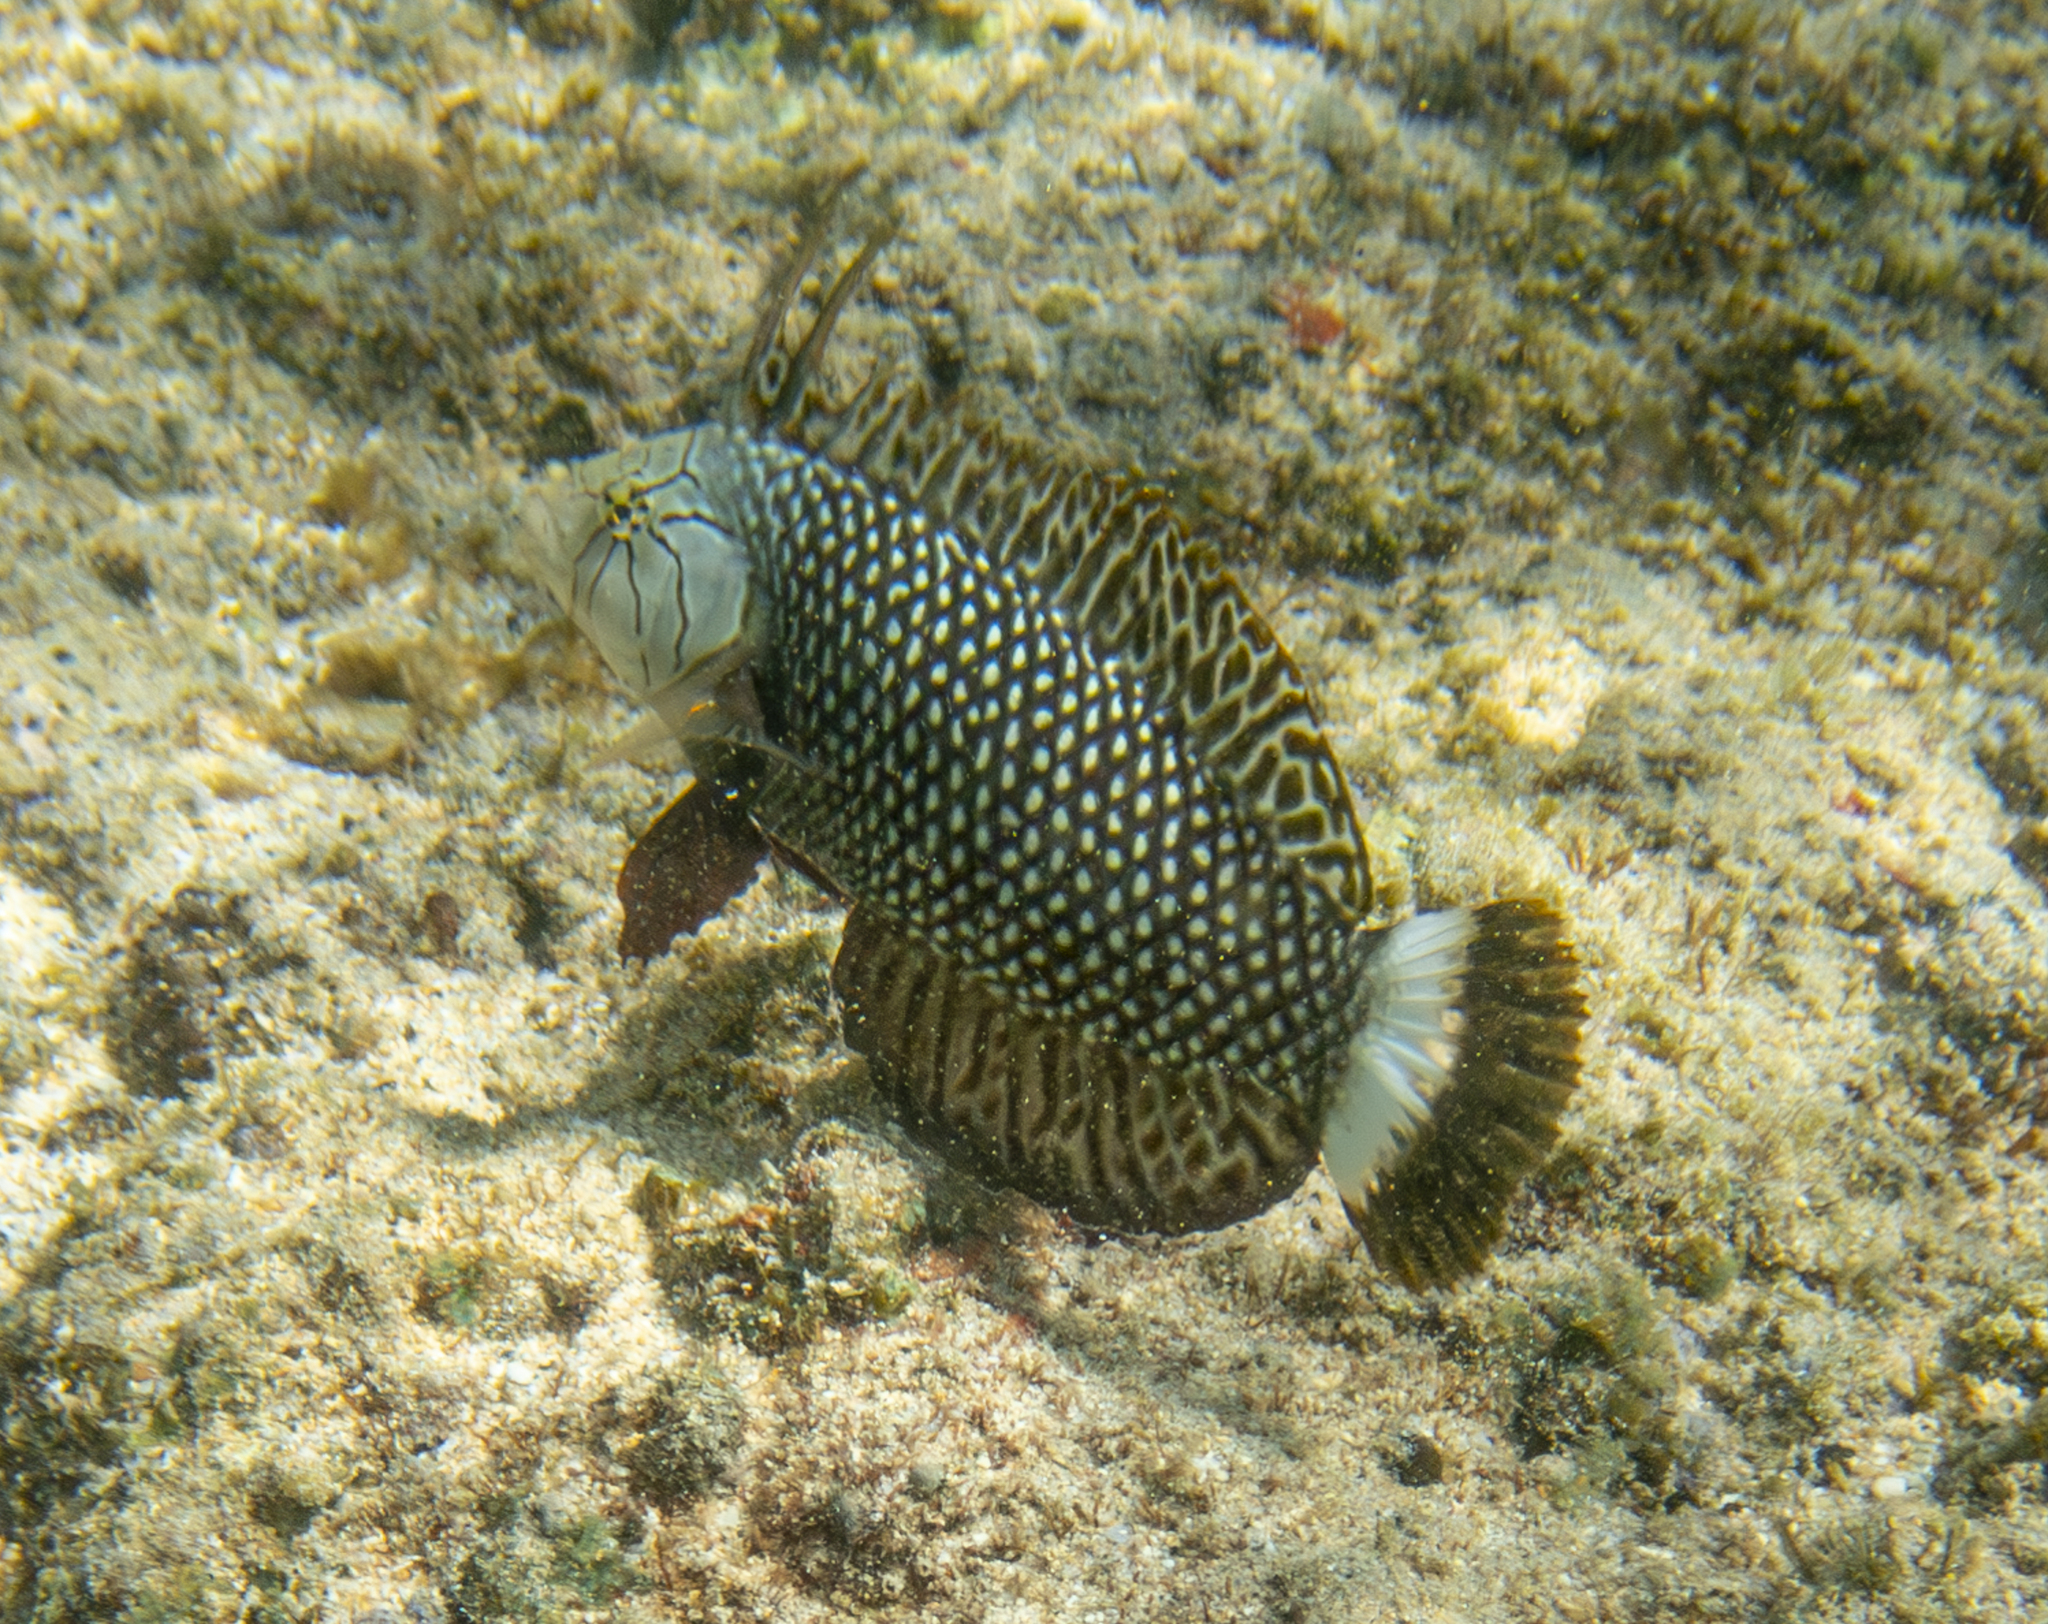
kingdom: Animalia
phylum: Chordata
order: Perciformes
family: Labridae
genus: Novaculichthys
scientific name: Novaculichthys taeniourus
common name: Rockmover wrasse
